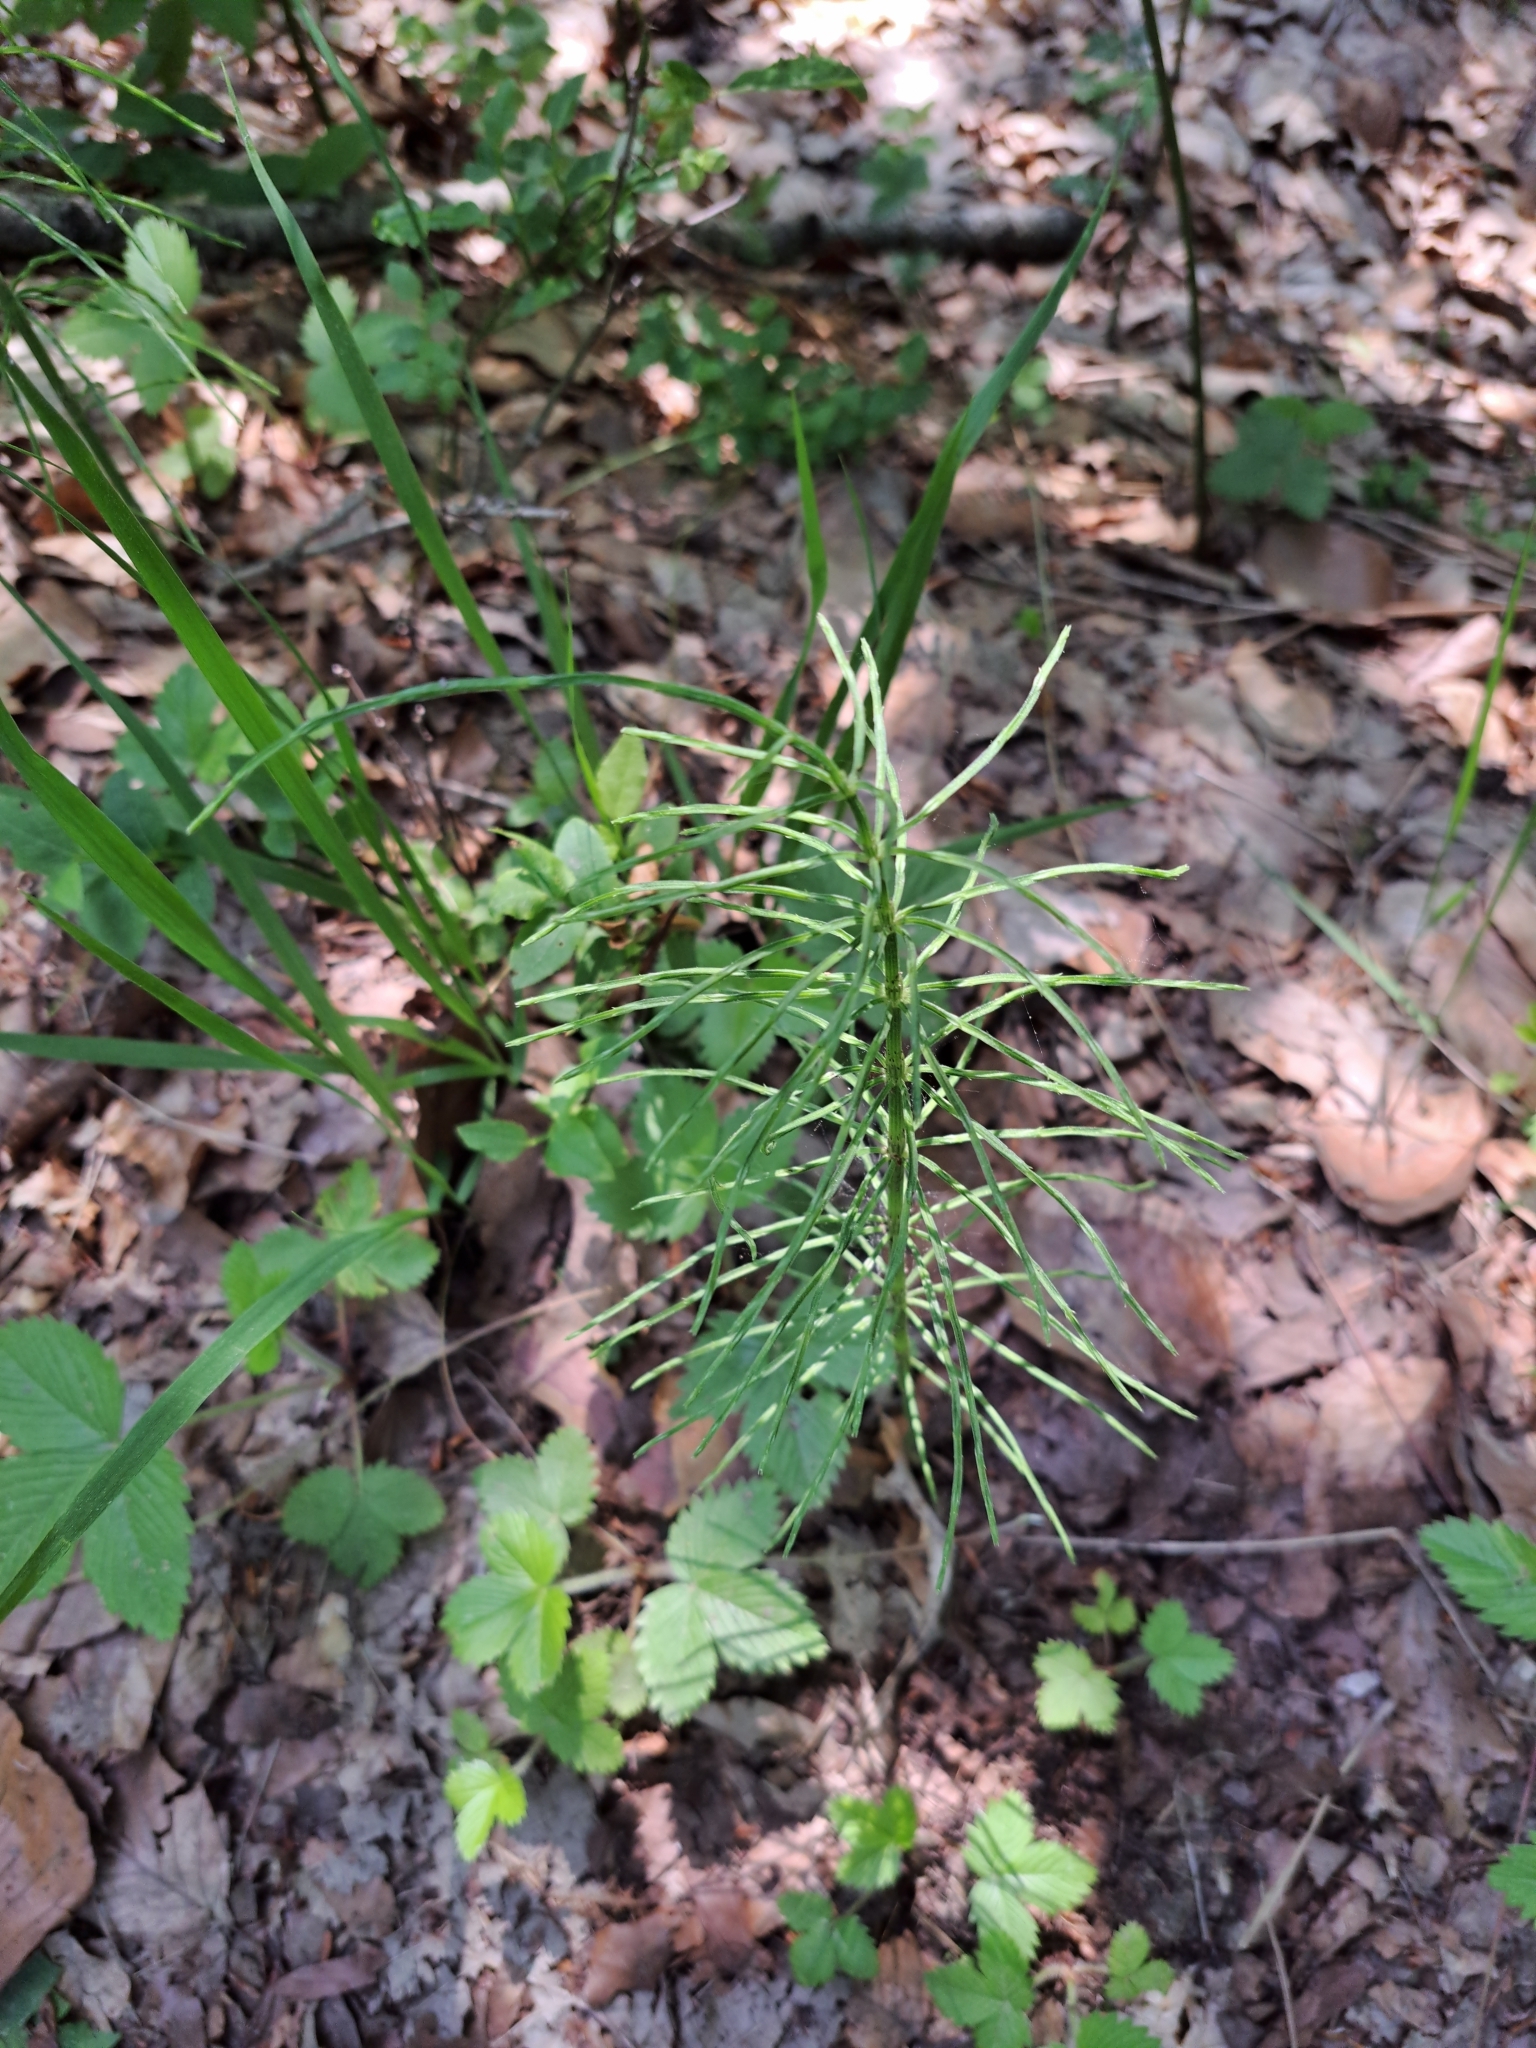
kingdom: Plantae
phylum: Tracheophyta
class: Polypodiopsida
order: Equisetales
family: Equisetaceae
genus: Equisetum
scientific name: Equisetum arvense
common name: Field horsetail
